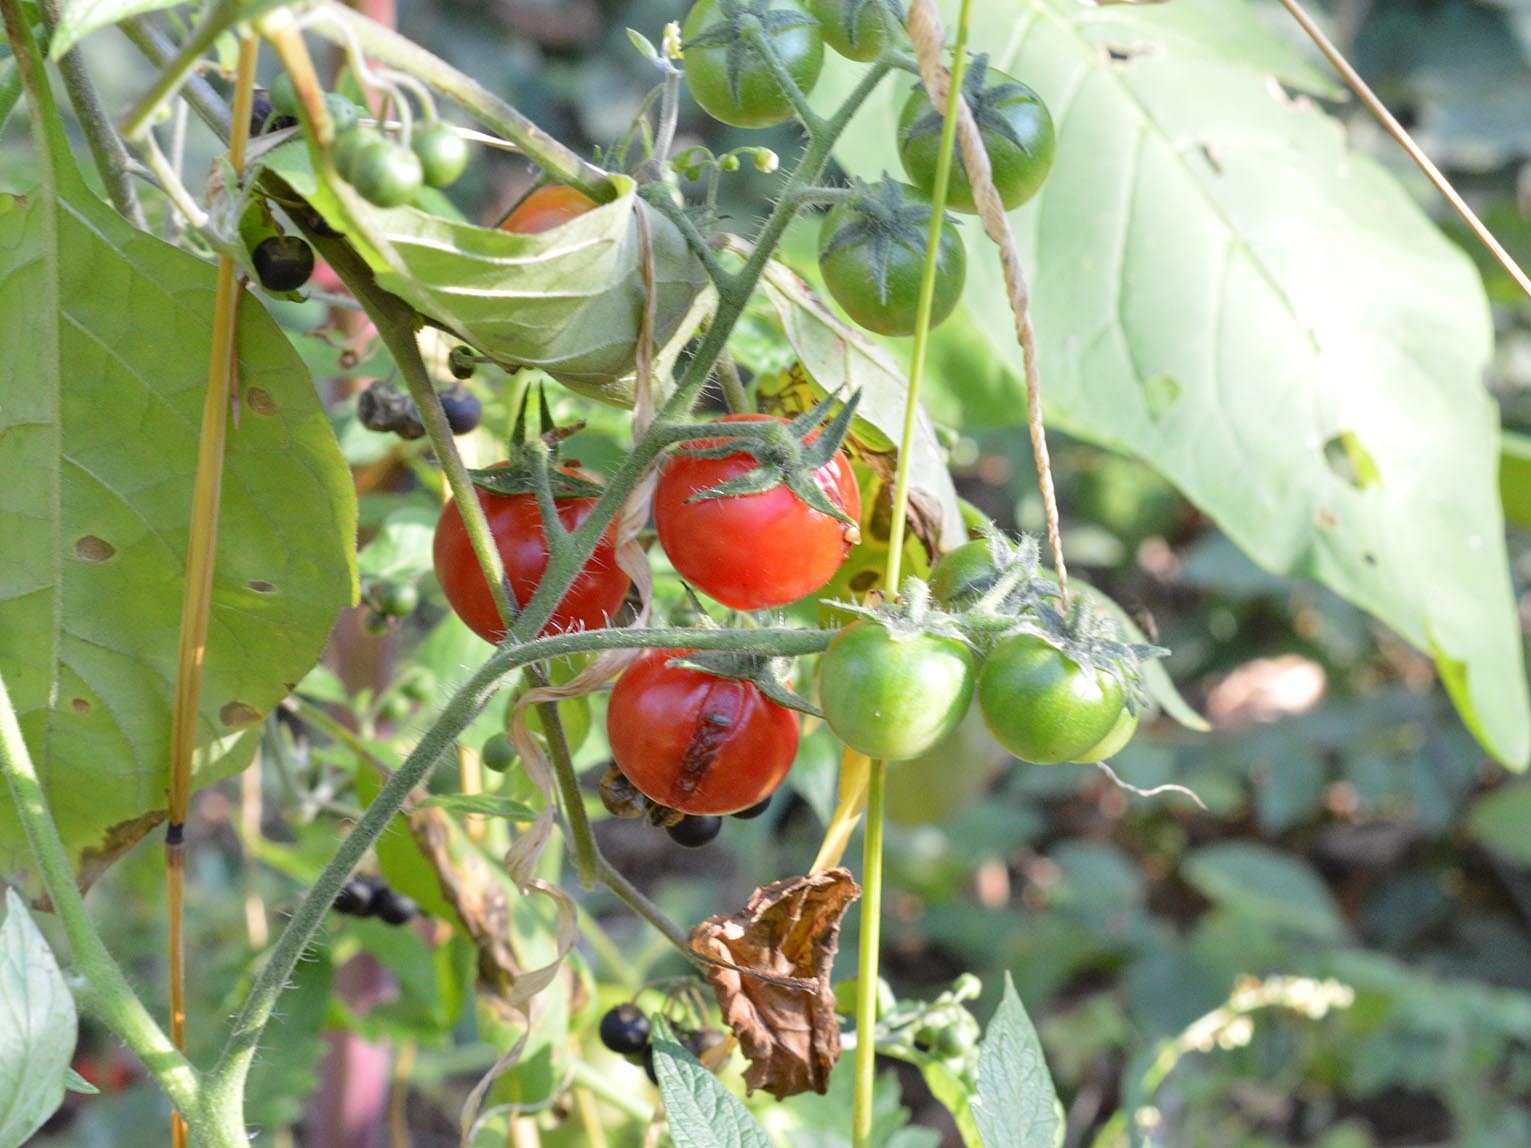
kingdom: Plantae
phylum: Tracheophyta
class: Magnoliopsida
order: Solanales
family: Solanaceae
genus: Solanum
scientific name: Solanum lycopersicum
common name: Garden tomato
